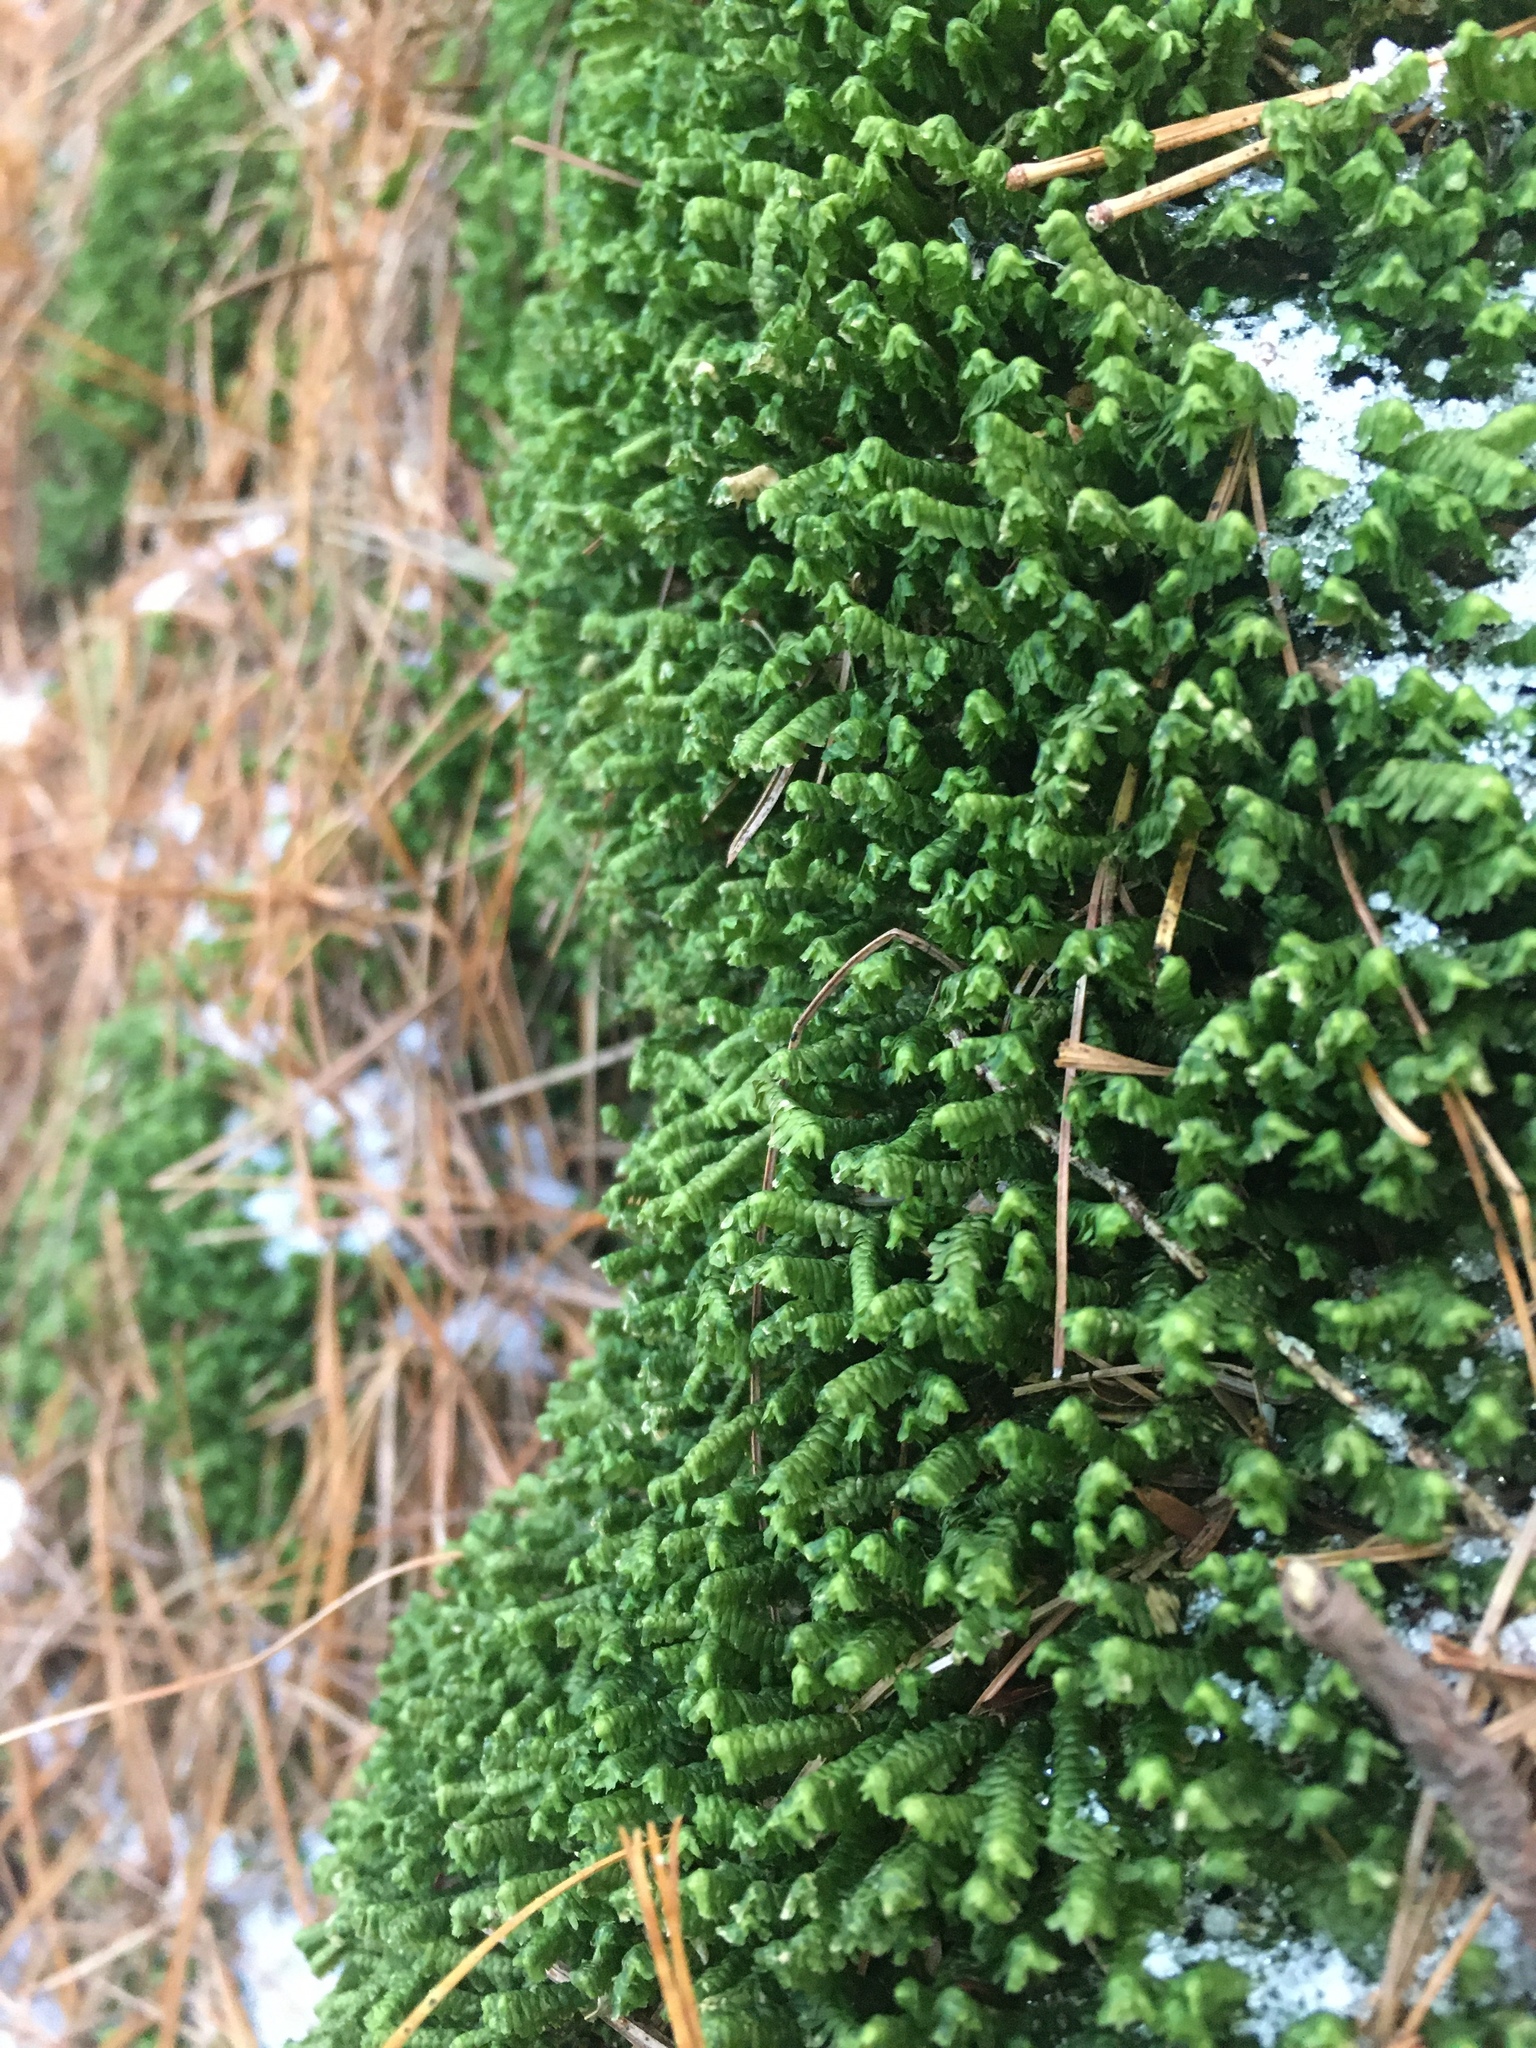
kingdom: Plantae
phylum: Marchantiophyta
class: Jungermanniopsida
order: Jungermanniales
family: Lepidoziaceae
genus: Bazzania
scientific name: Bazzania trilobata
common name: Three-lobed whipwort
